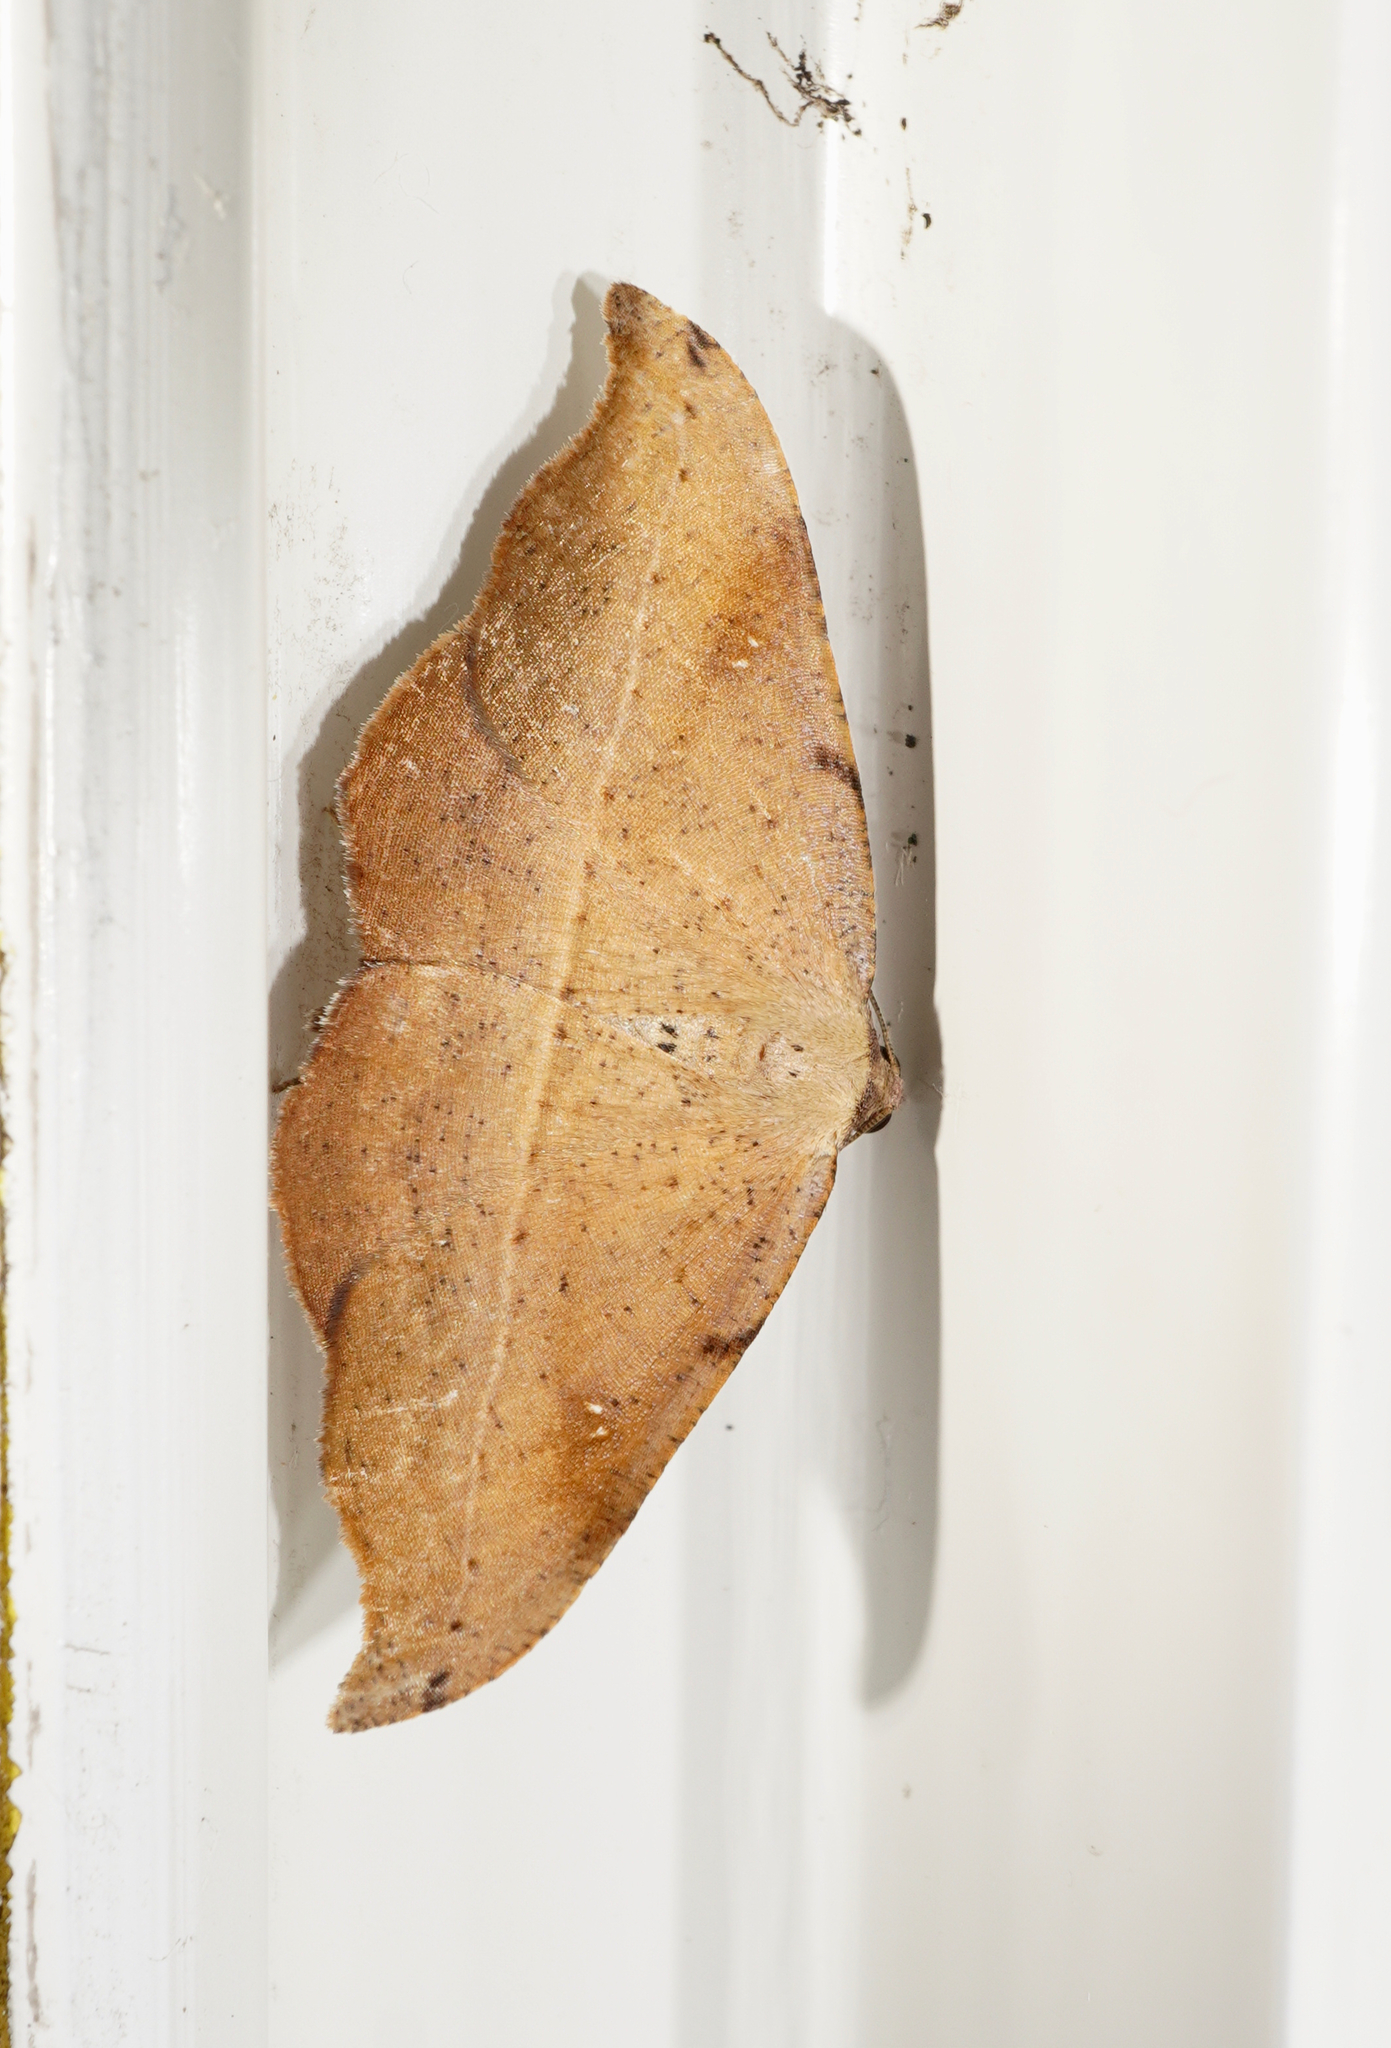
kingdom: Animalia
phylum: Arthropoda
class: Insecta
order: Lepidoptera
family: Geometridae
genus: Sarisa
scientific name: Sarisa muriferata
